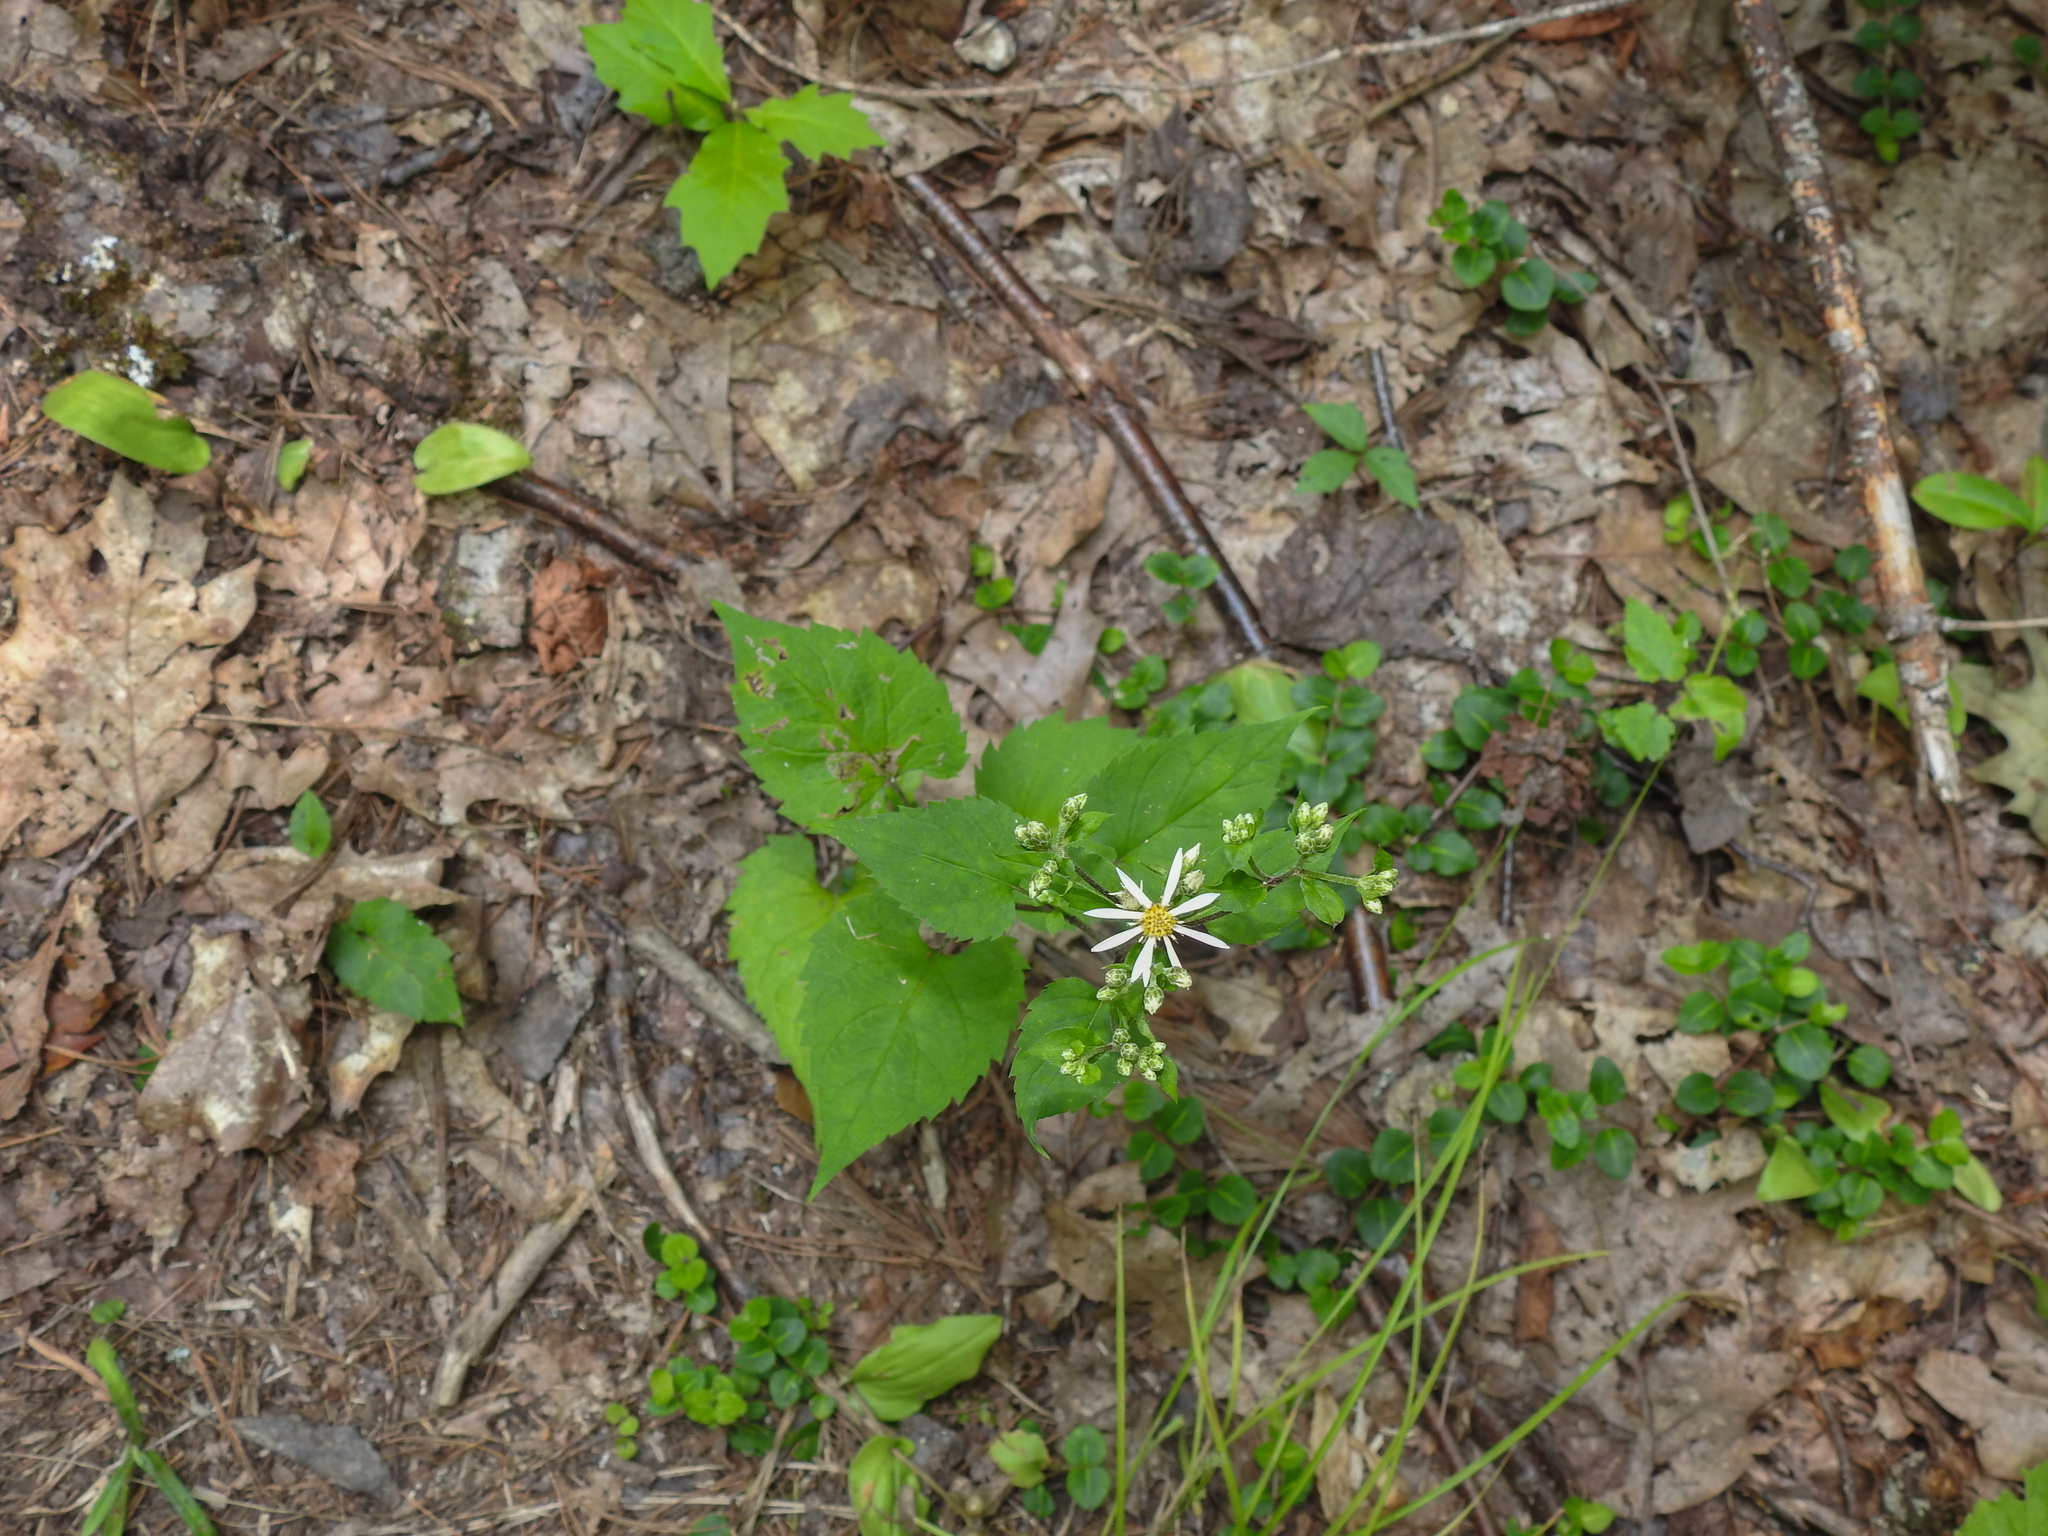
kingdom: Plantae
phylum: Tracheophyta
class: Magnoliopsida
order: Asterales
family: Asteraceae
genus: Eurybia
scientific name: Eurybia divaricata
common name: White wood aster
